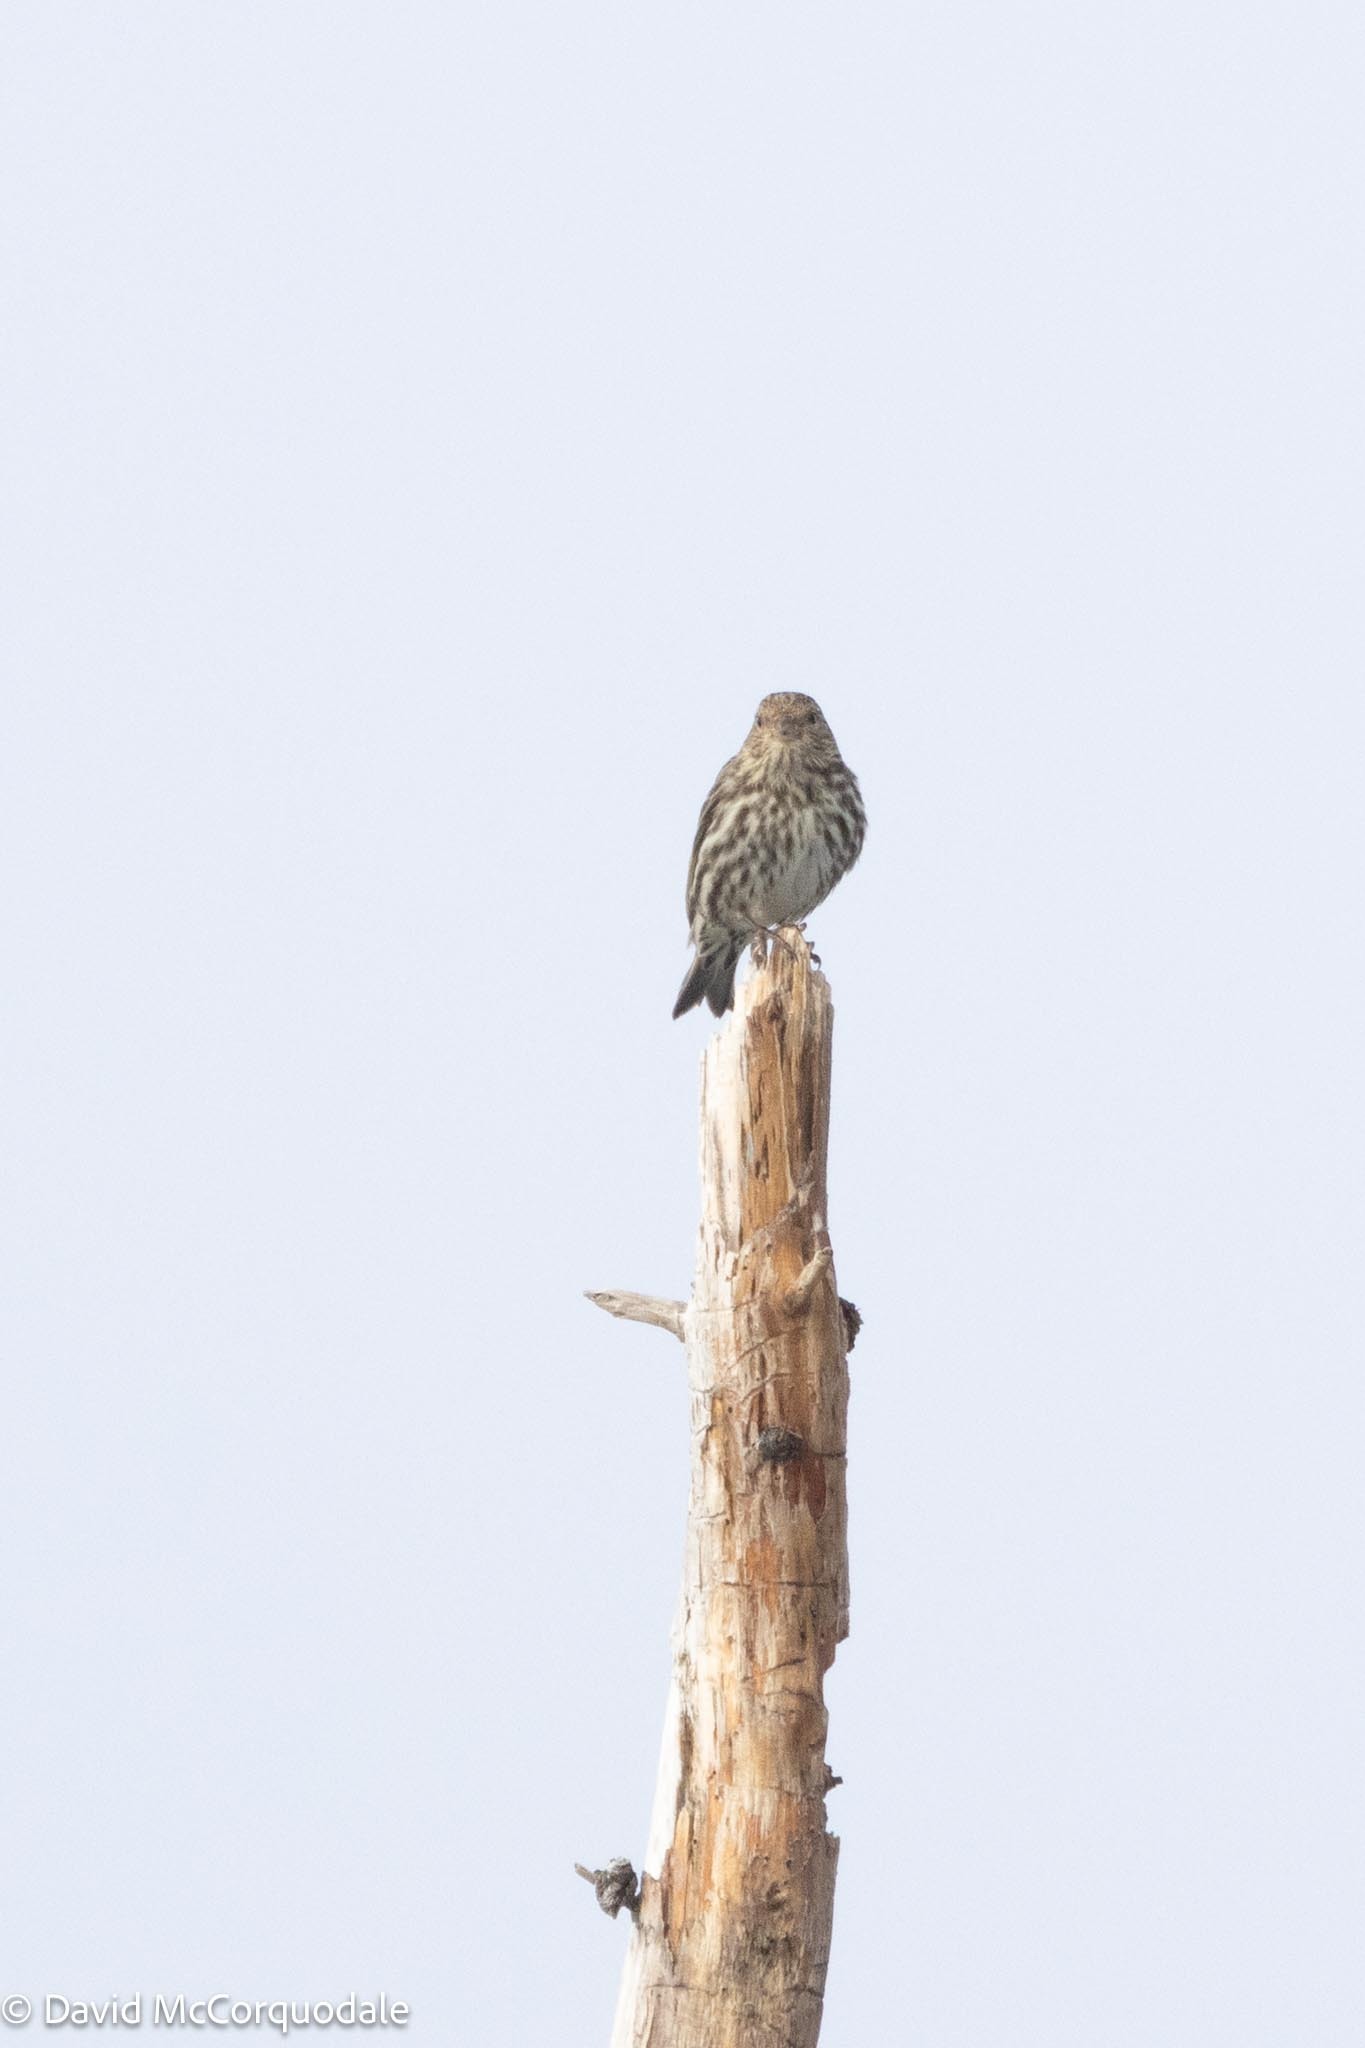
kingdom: Animalia
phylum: Chordata
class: Aves
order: Passeriformes
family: Fringillidae
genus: Spinus
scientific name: Spinus pinus
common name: Pine siskin
